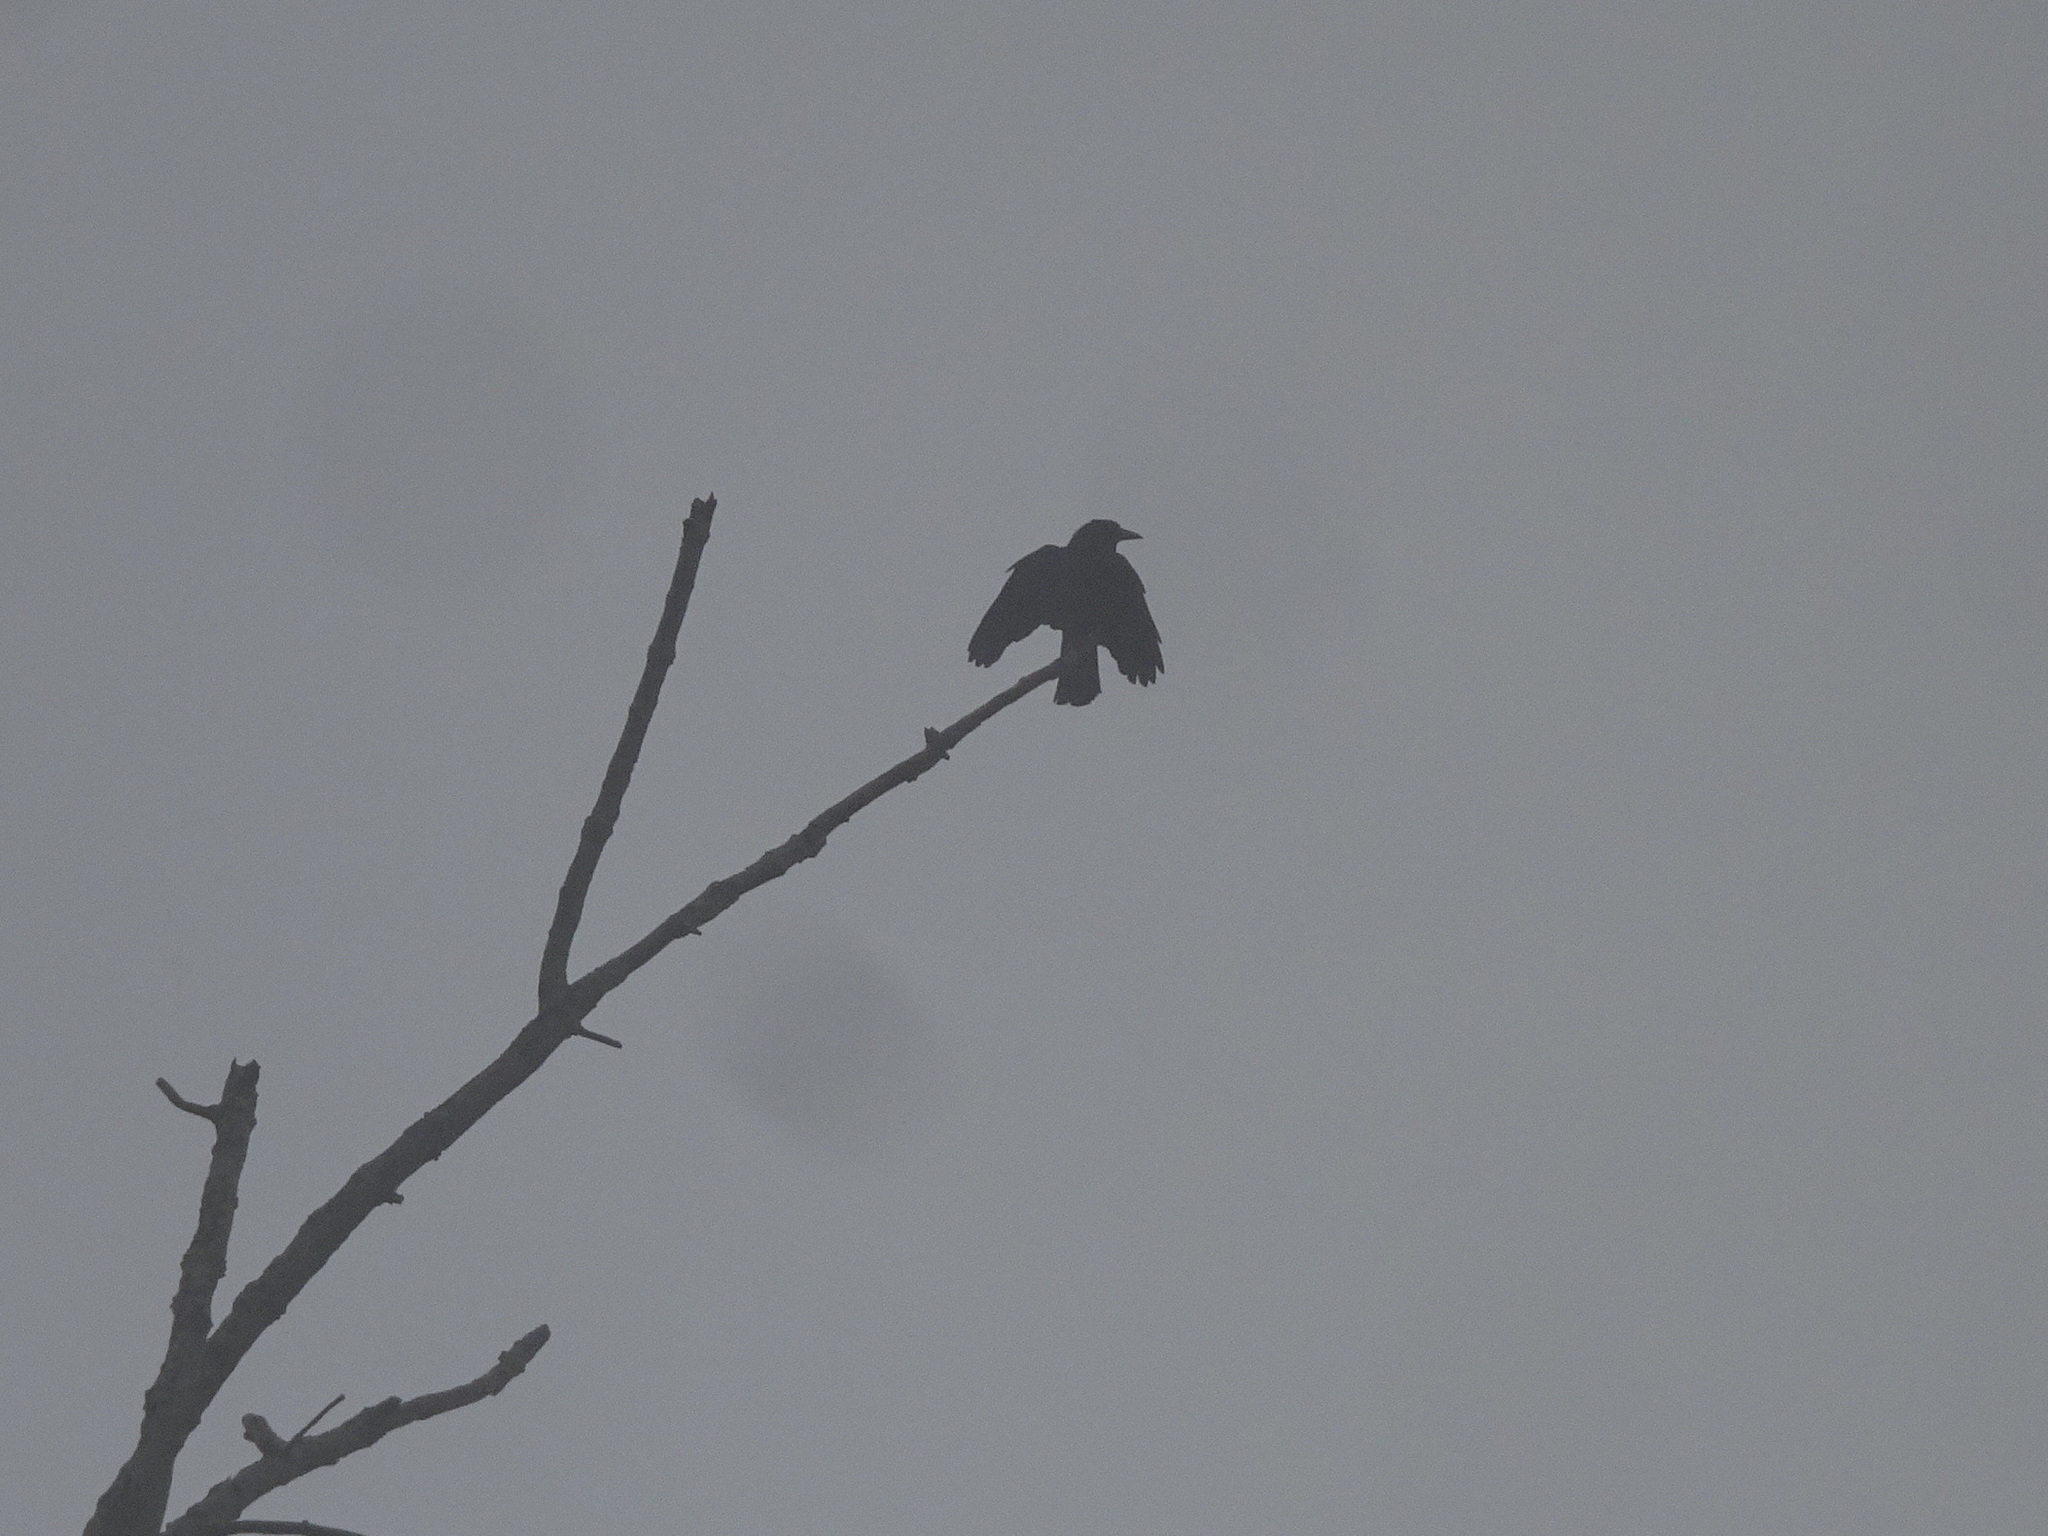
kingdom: Animalia
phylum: Chordata
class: Aves
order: Passeriformes
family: Corvidae
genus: Corvus
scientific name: Corvus brachyrhynchos
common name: American crow
